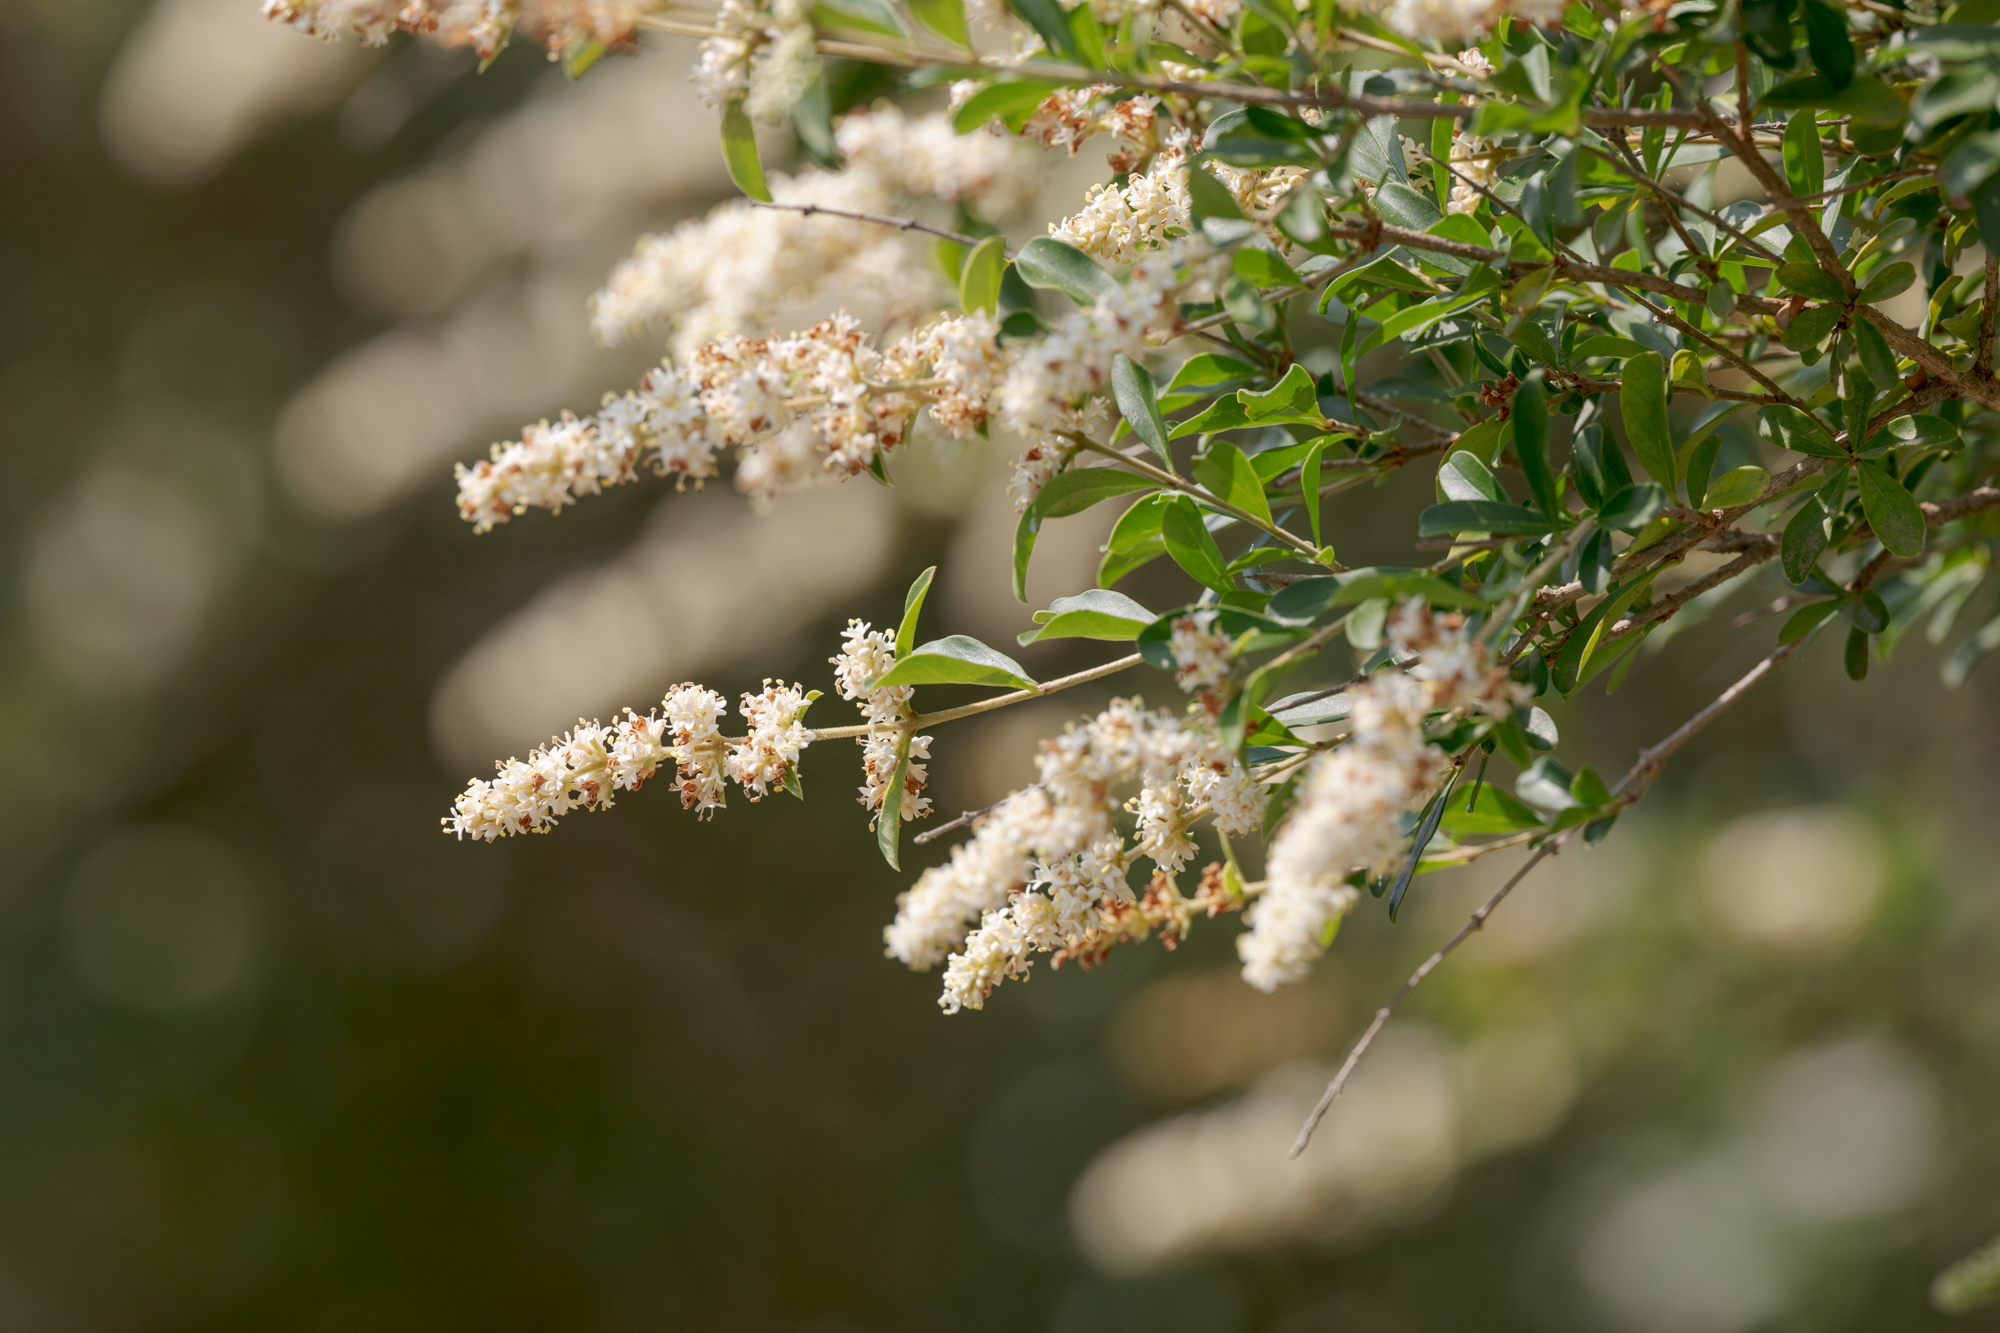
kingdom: Plantae
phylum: Tracheophyta
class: Magnoliopsida
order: Lamiales
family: Oleaceae
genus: Ligustrum
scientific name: Ligustrum quihoui
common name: Waxyleaf privet
